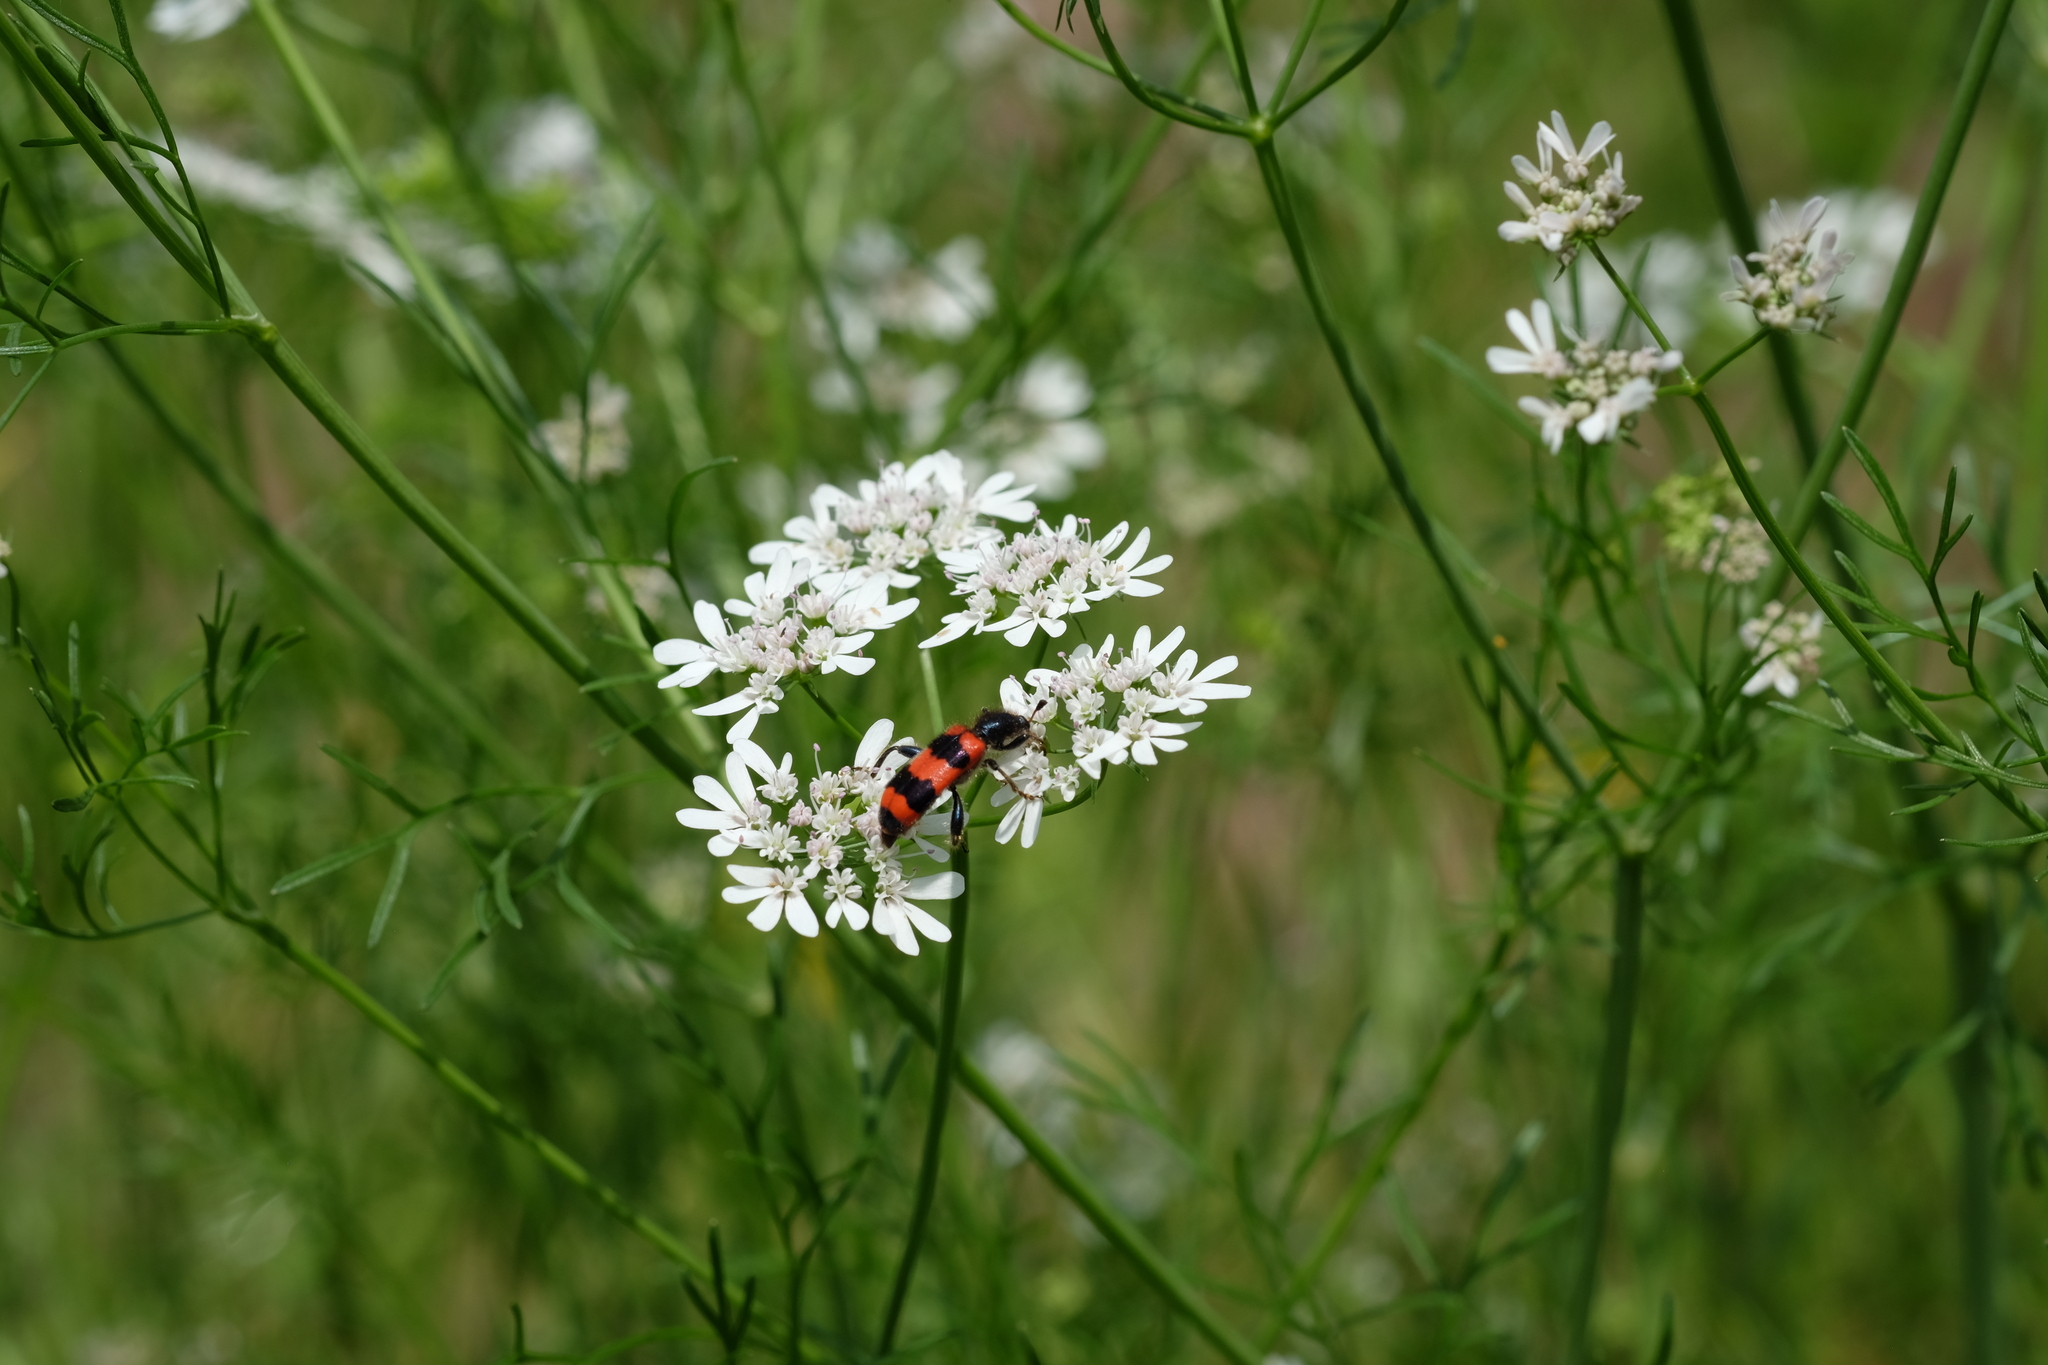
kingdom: Animalia
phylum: Arthropoda
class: Insecta
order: Coleoptera
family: Cleridae
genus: Trichodes
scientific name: Trichodes apiarius
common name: Bee-eating beetle
